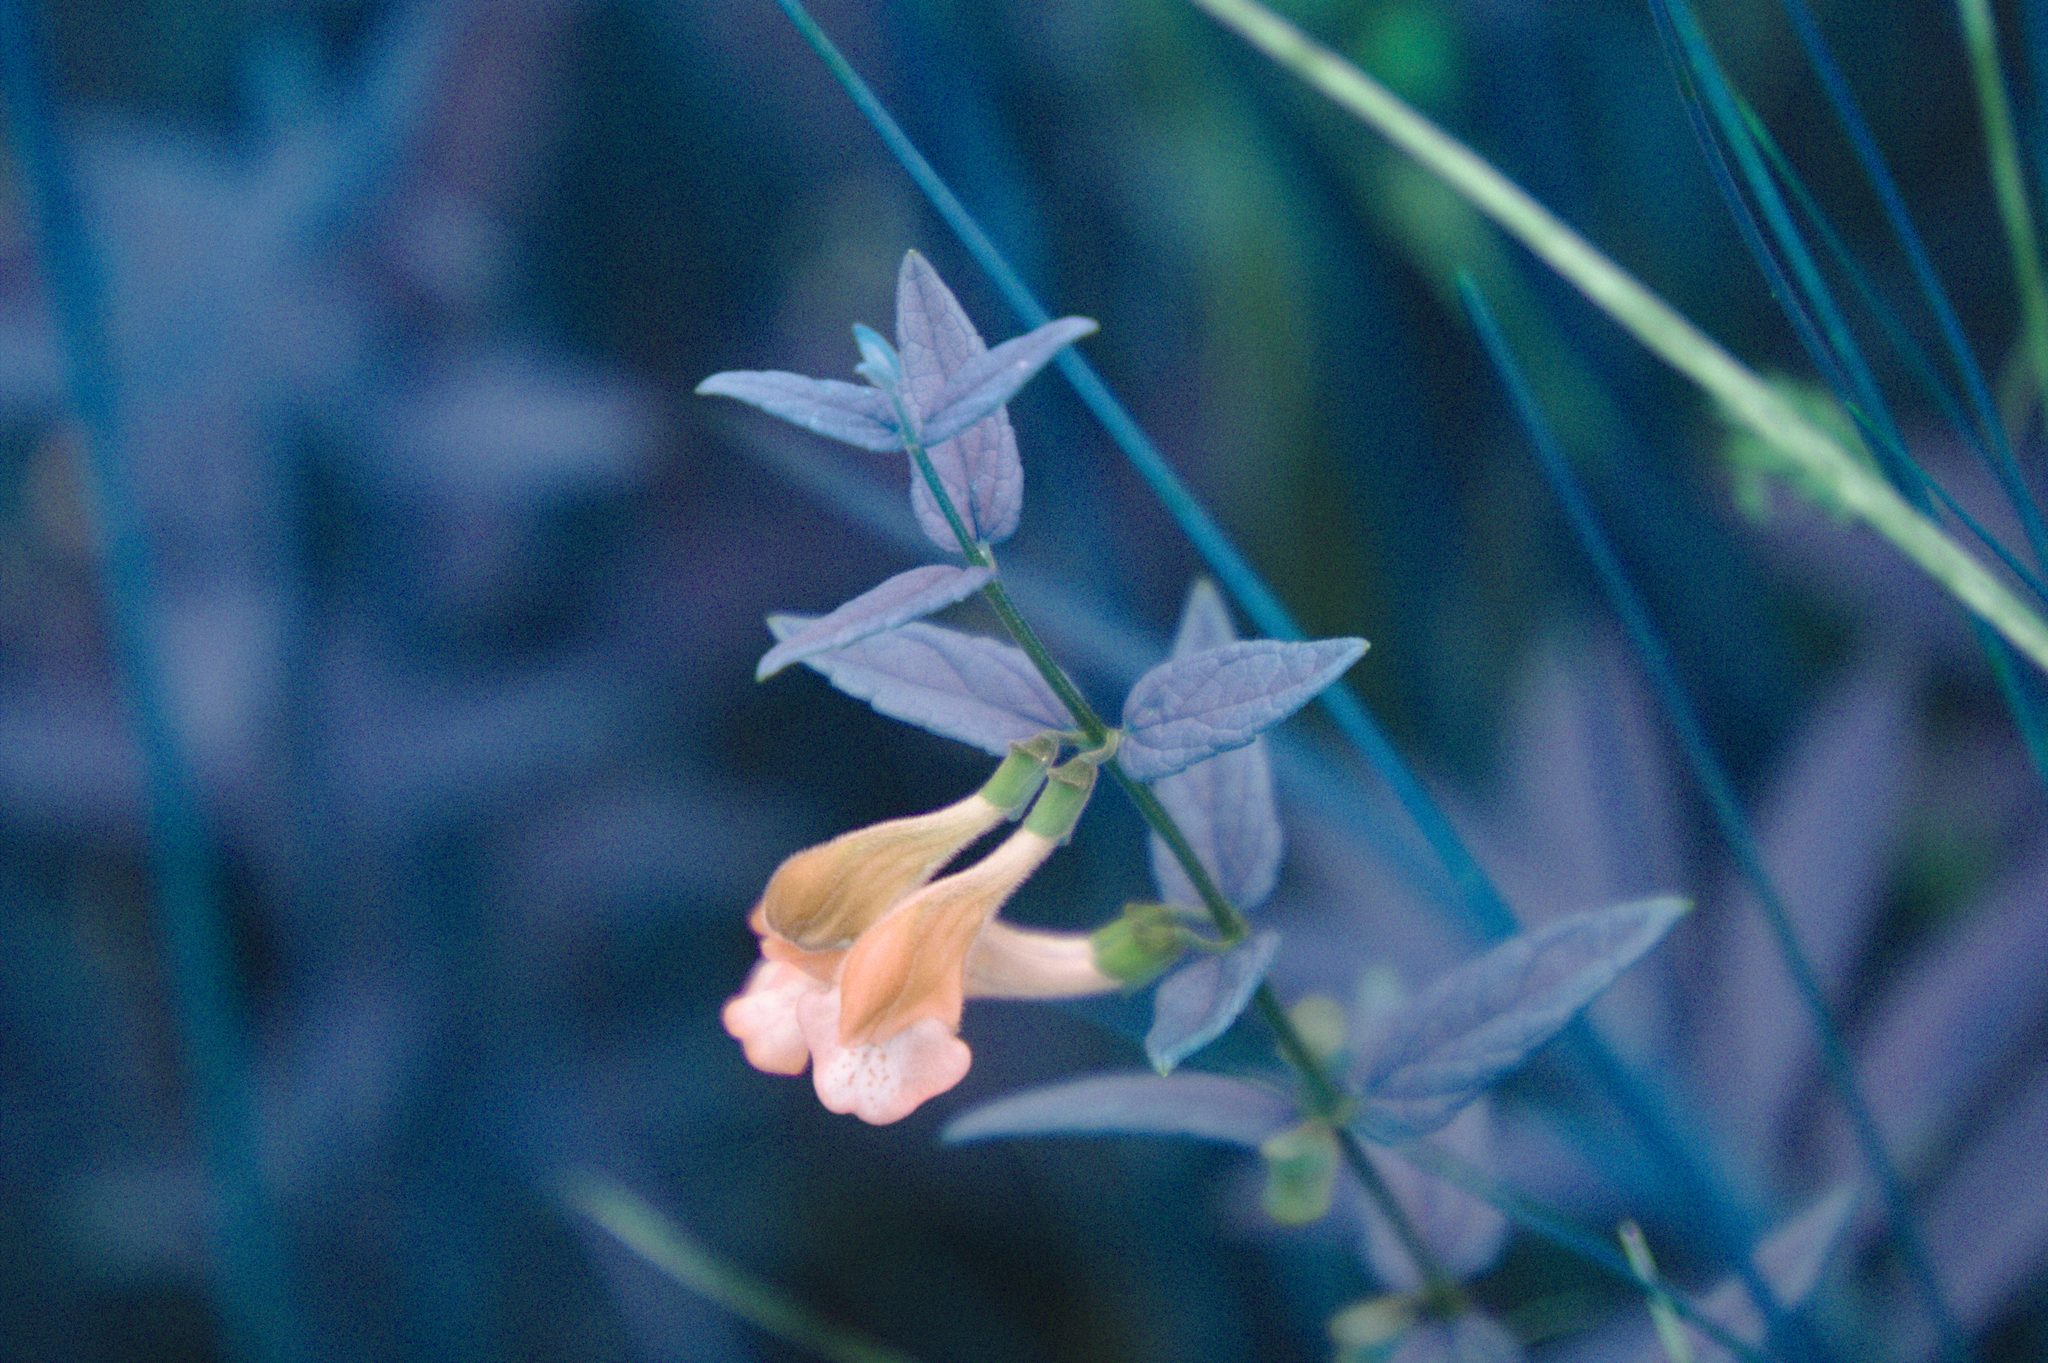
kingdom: Plantae
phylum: Tracheophyta
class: Magnoliopsida
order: Lamiales
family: Lamiaceae
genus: Scutellaria
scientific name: Scutellaria galericulata
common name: Skullcap
